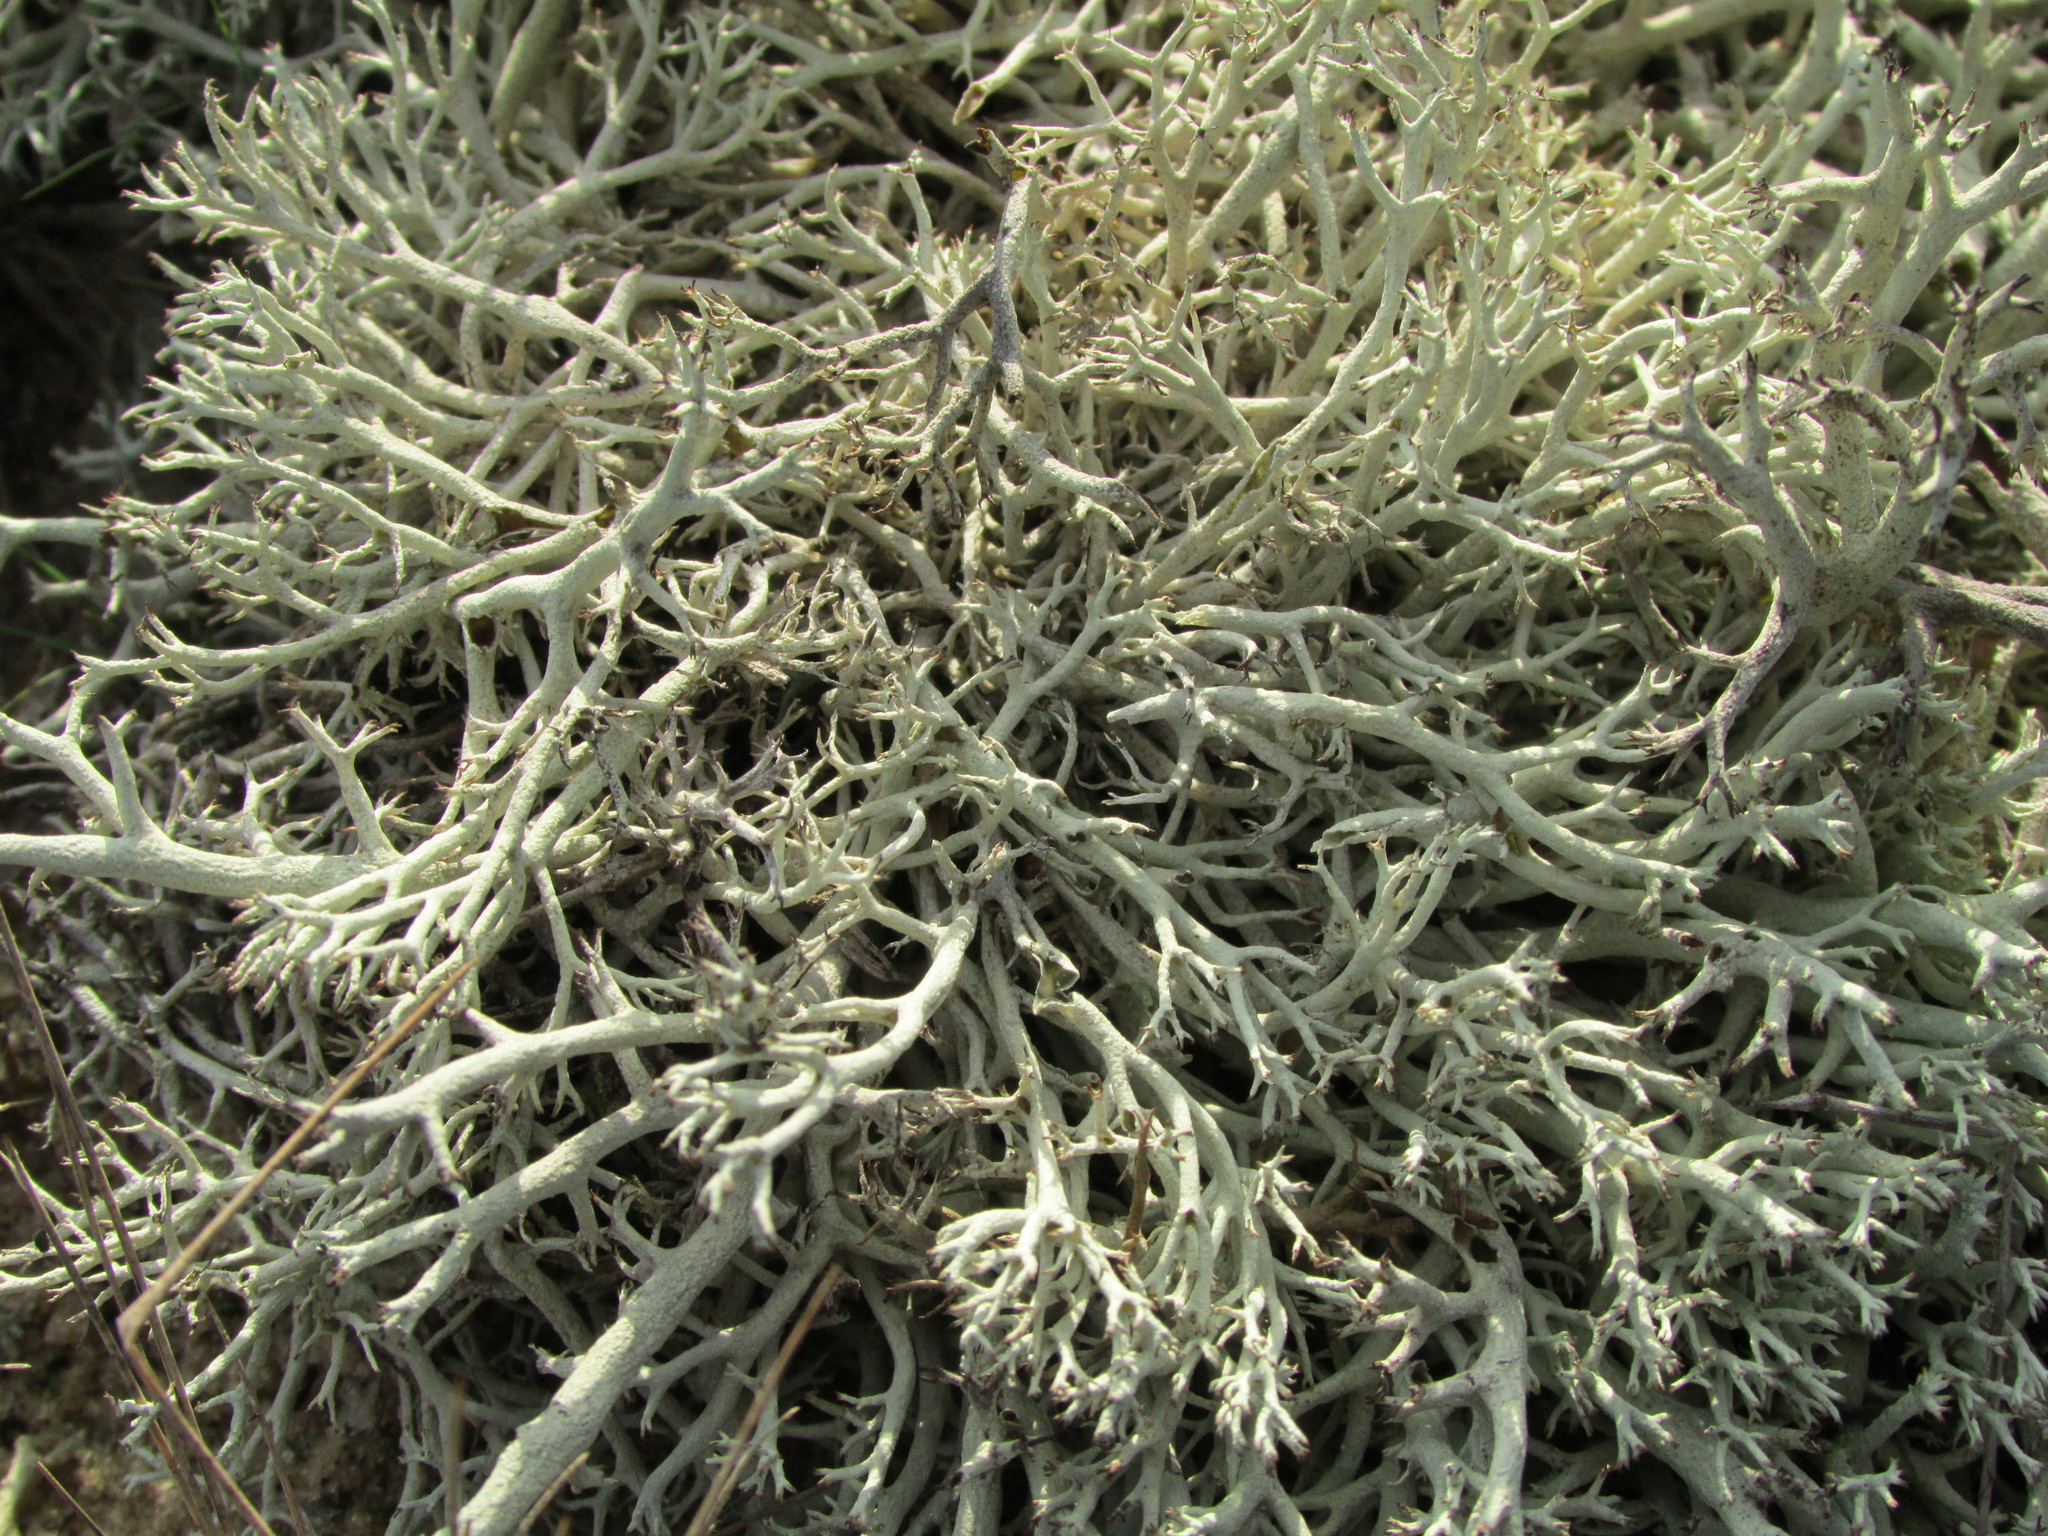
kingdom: Fungi
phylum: Ascomycota
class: Lecanoromycetes
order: Lecanorales
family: Cladoniaceae
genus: Cladonia
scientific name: Cladonia mitis
